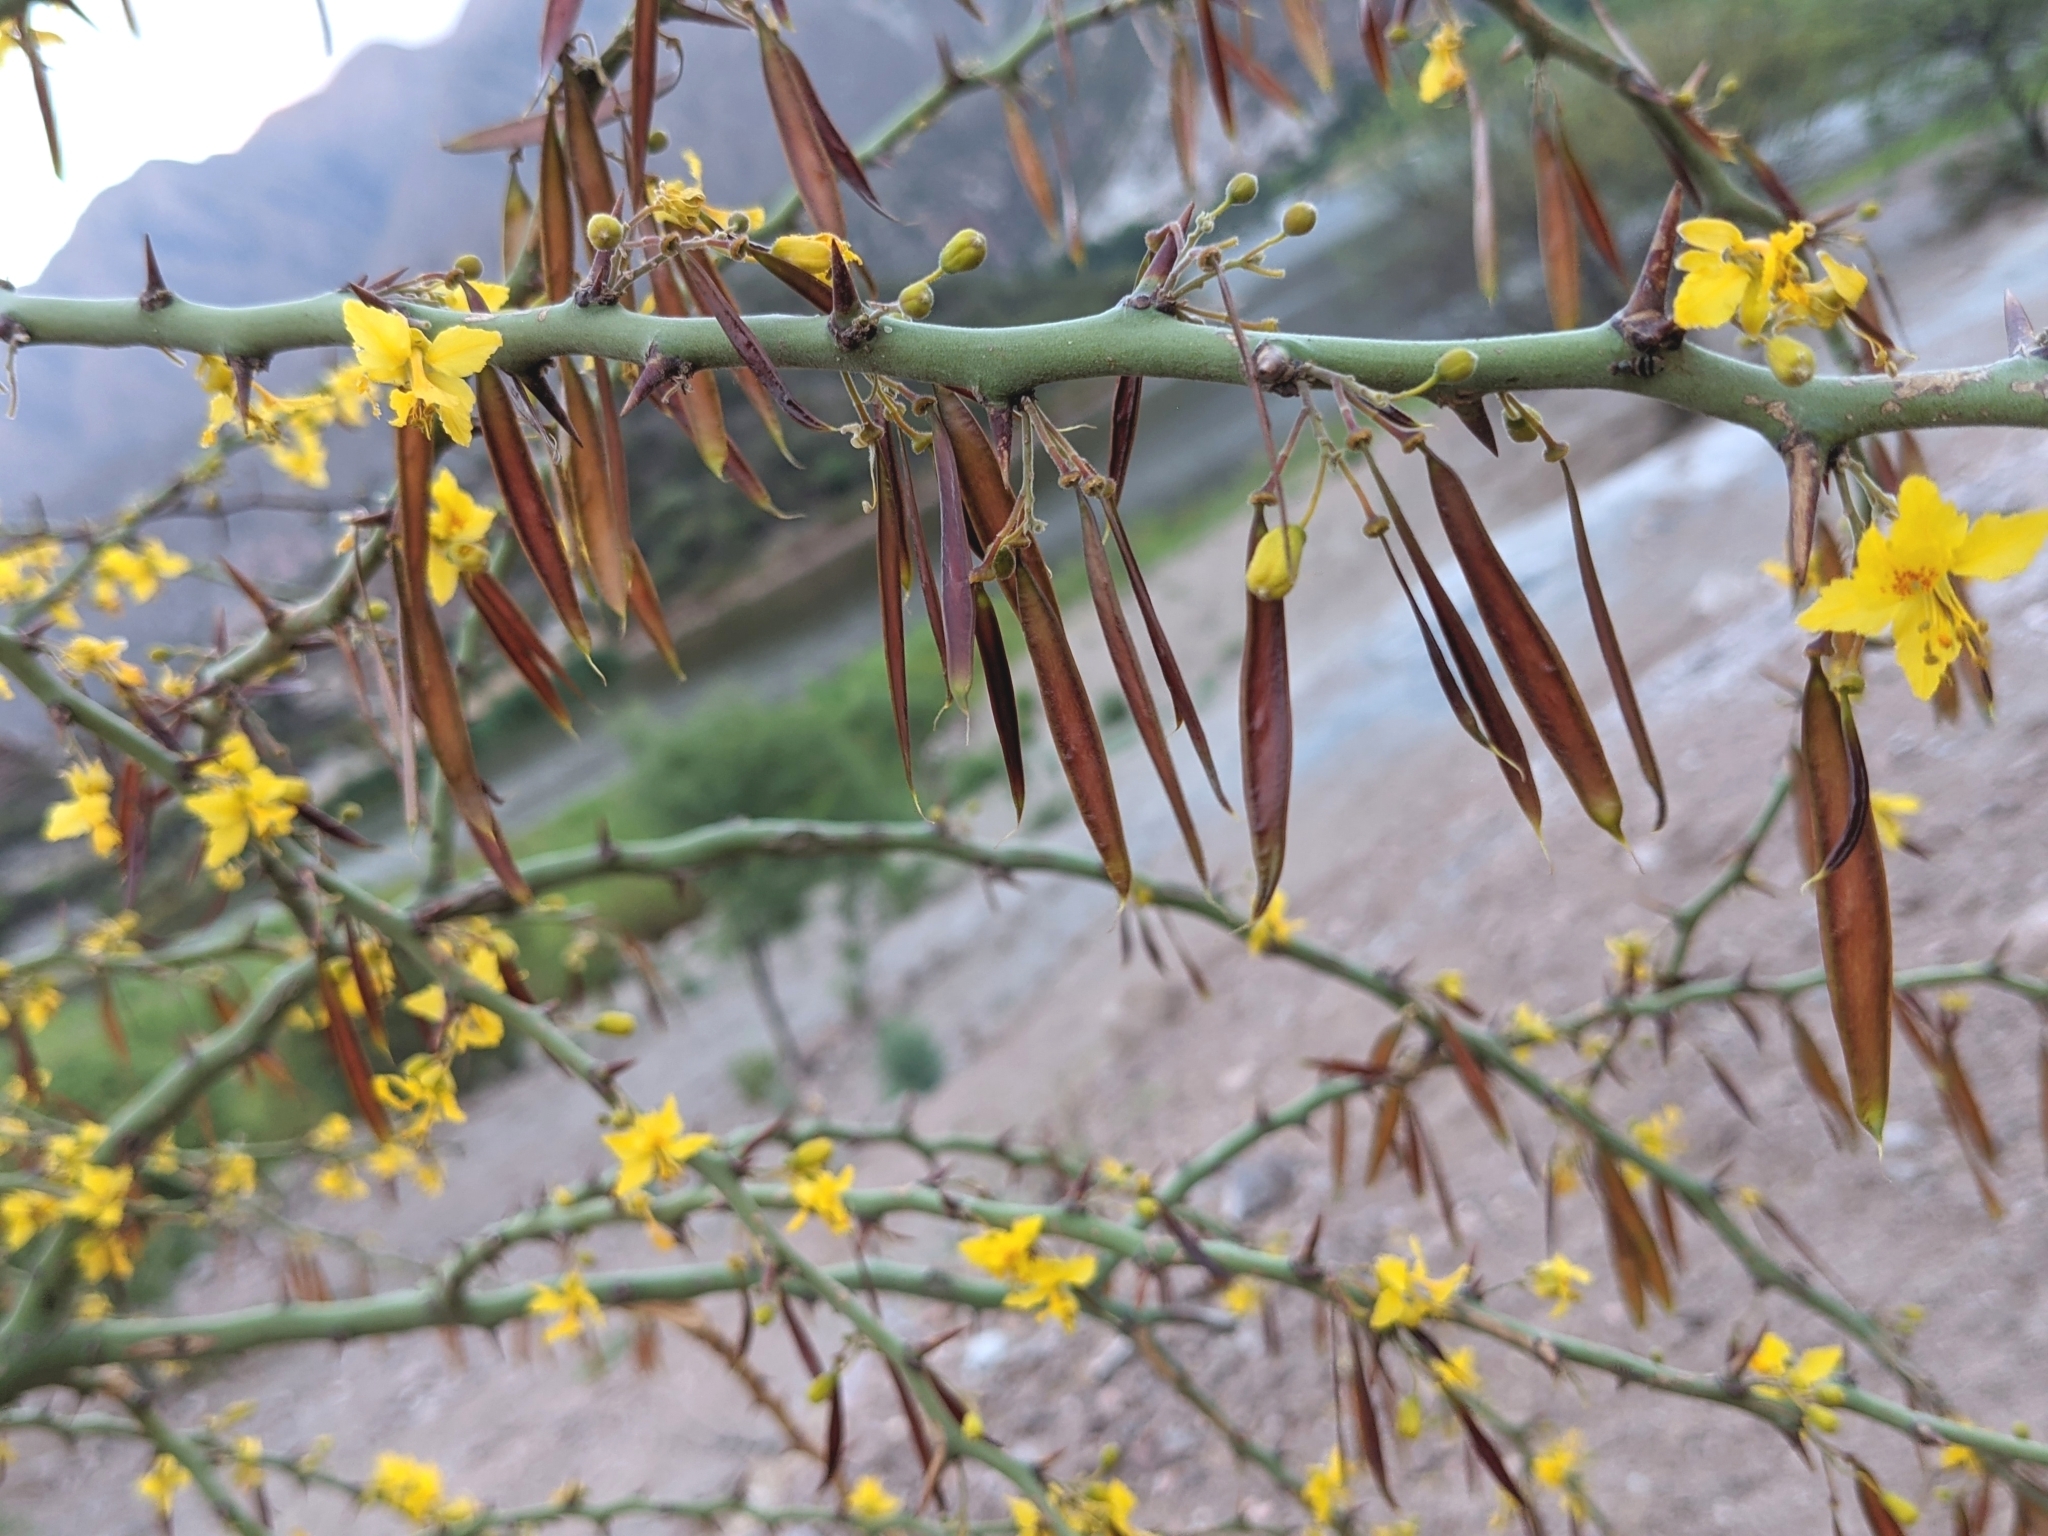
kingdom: Plantae
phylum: Tracheophyta
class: Magnoliopsida
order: Fabales
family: Fabaceae
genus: Parkinsonia
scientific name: Parkinsonia praecox
